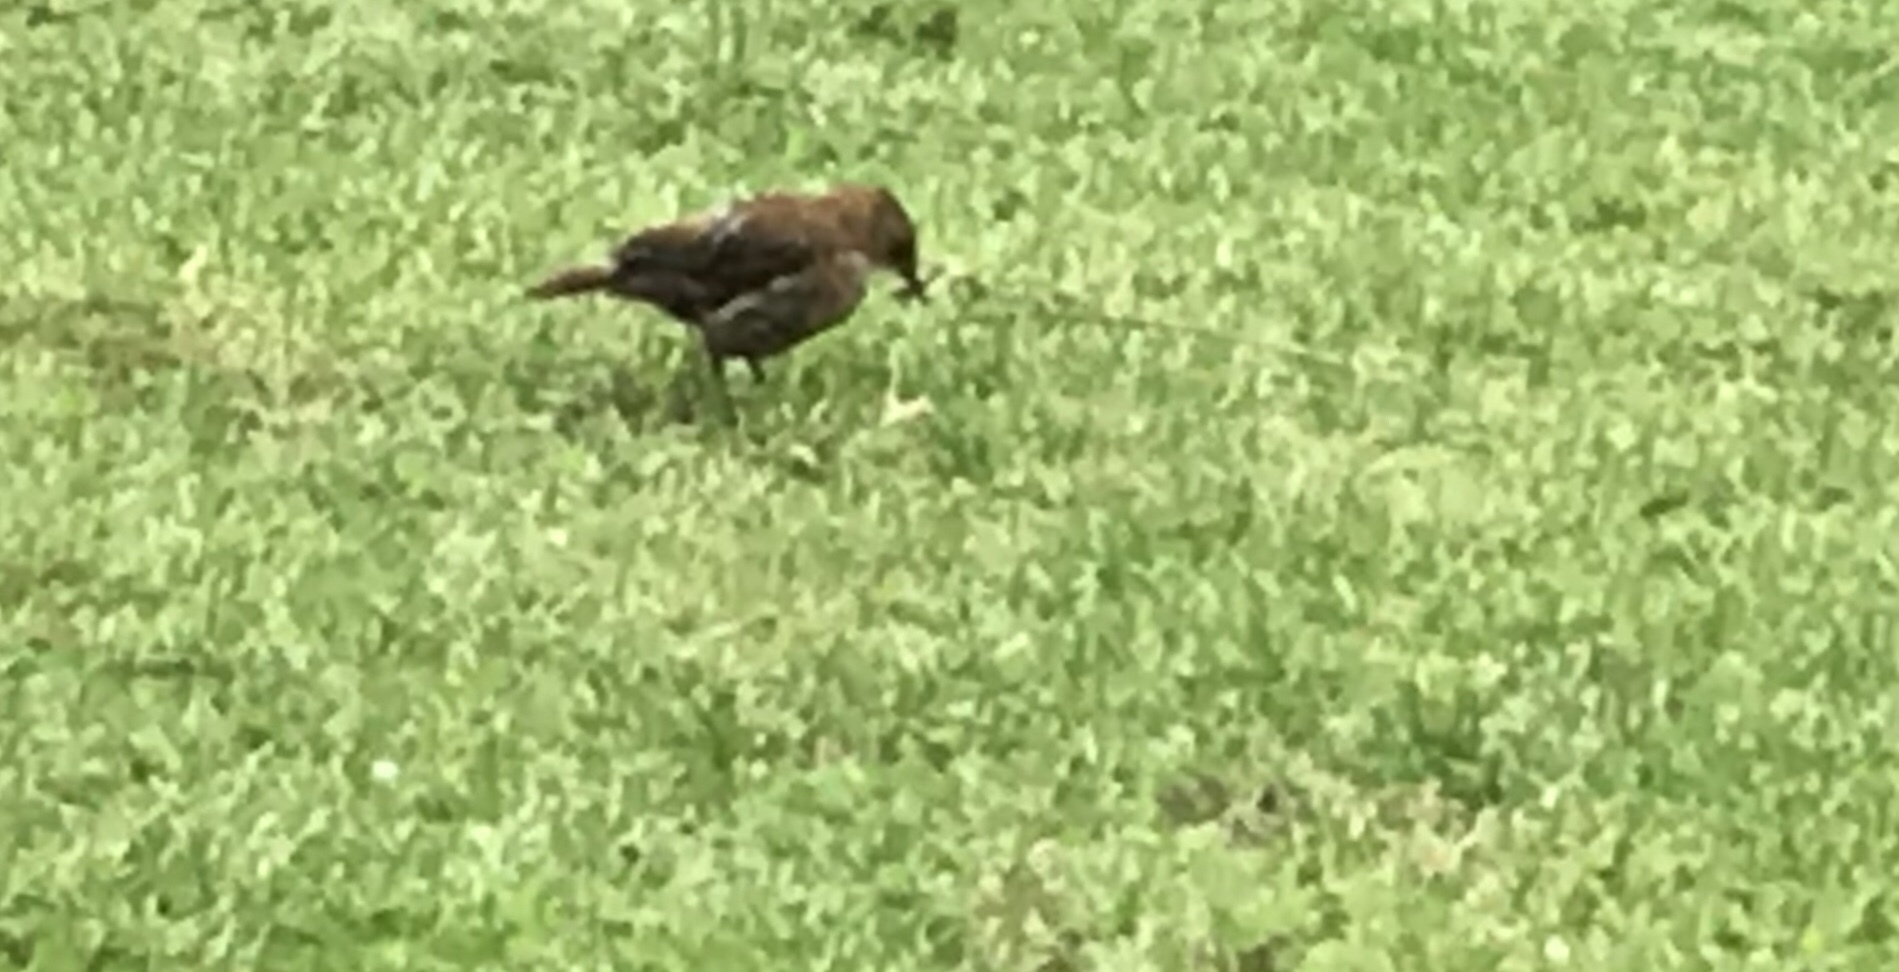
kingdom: Animalia
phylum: Chordata
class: Aves
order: Passeriformes
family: Furnariidae
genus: Furnarius
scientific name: Furnarius rufus
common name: Rufous hornero
